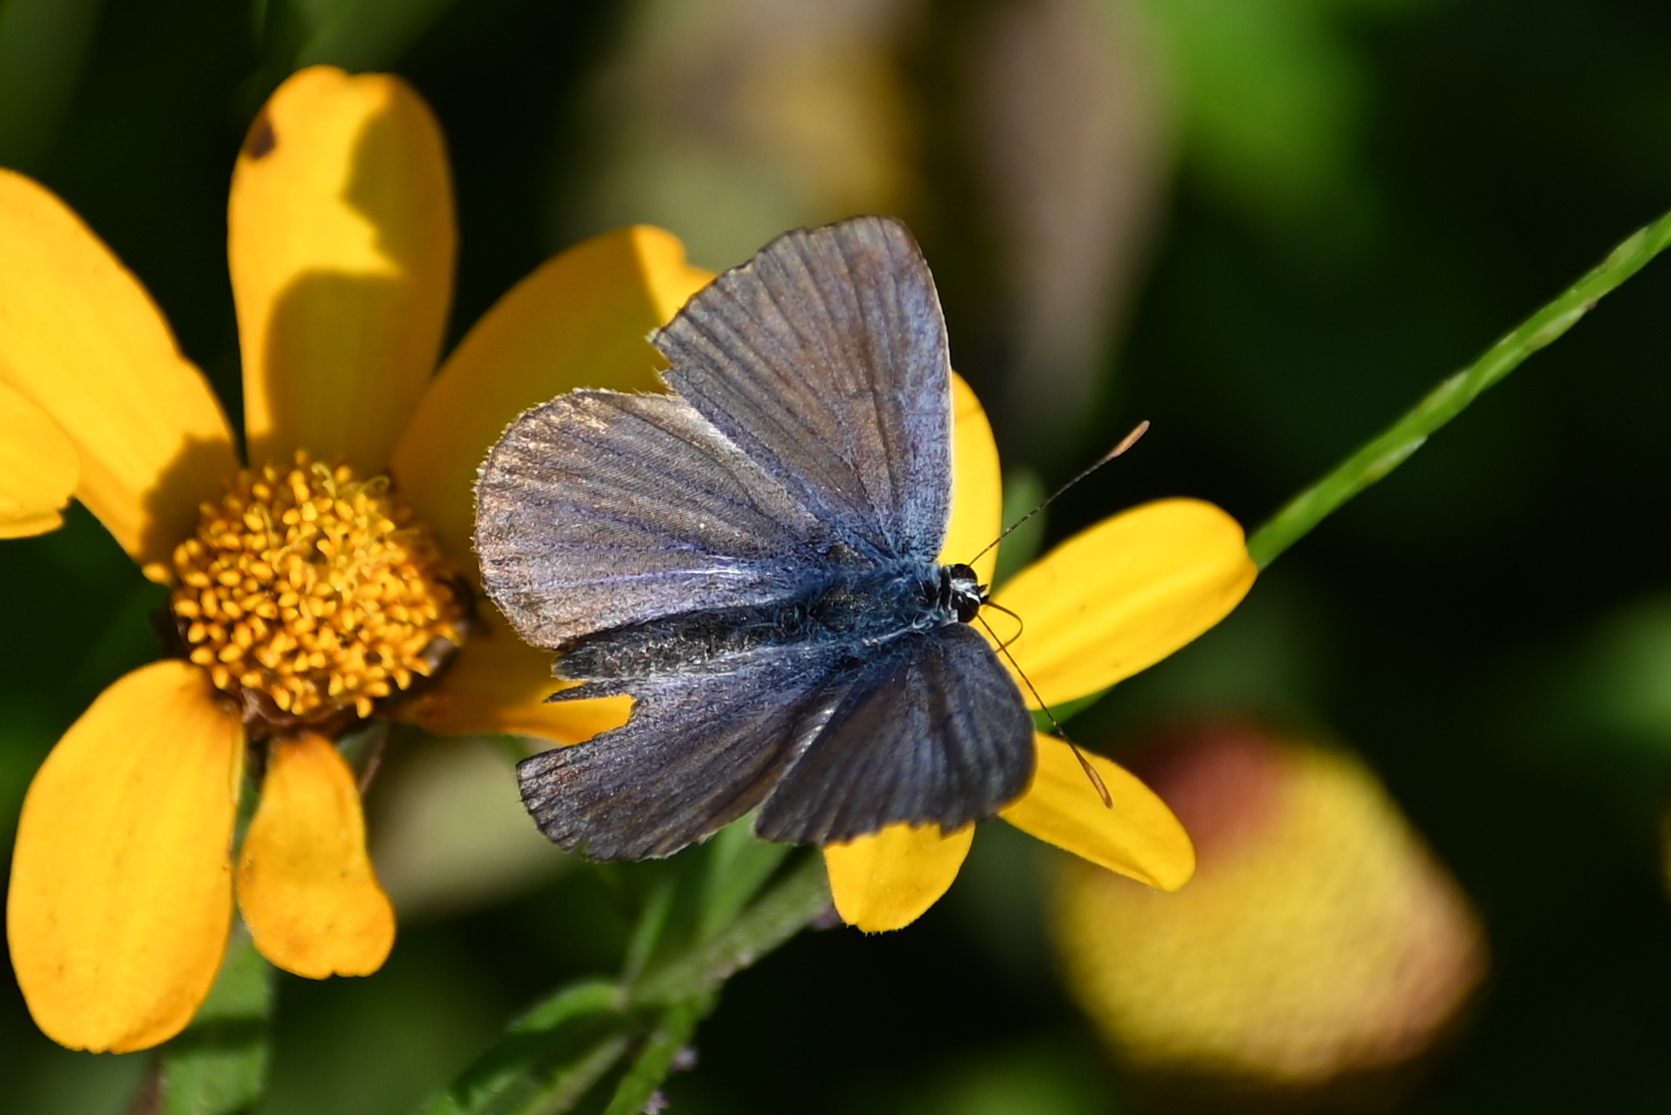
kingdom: Animalia
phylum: Arthropoda
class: Insecta
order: Lepidoptera
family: Lycaenidae
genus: Polyommatus
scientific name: Polyommatus icarus
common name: Common blue
